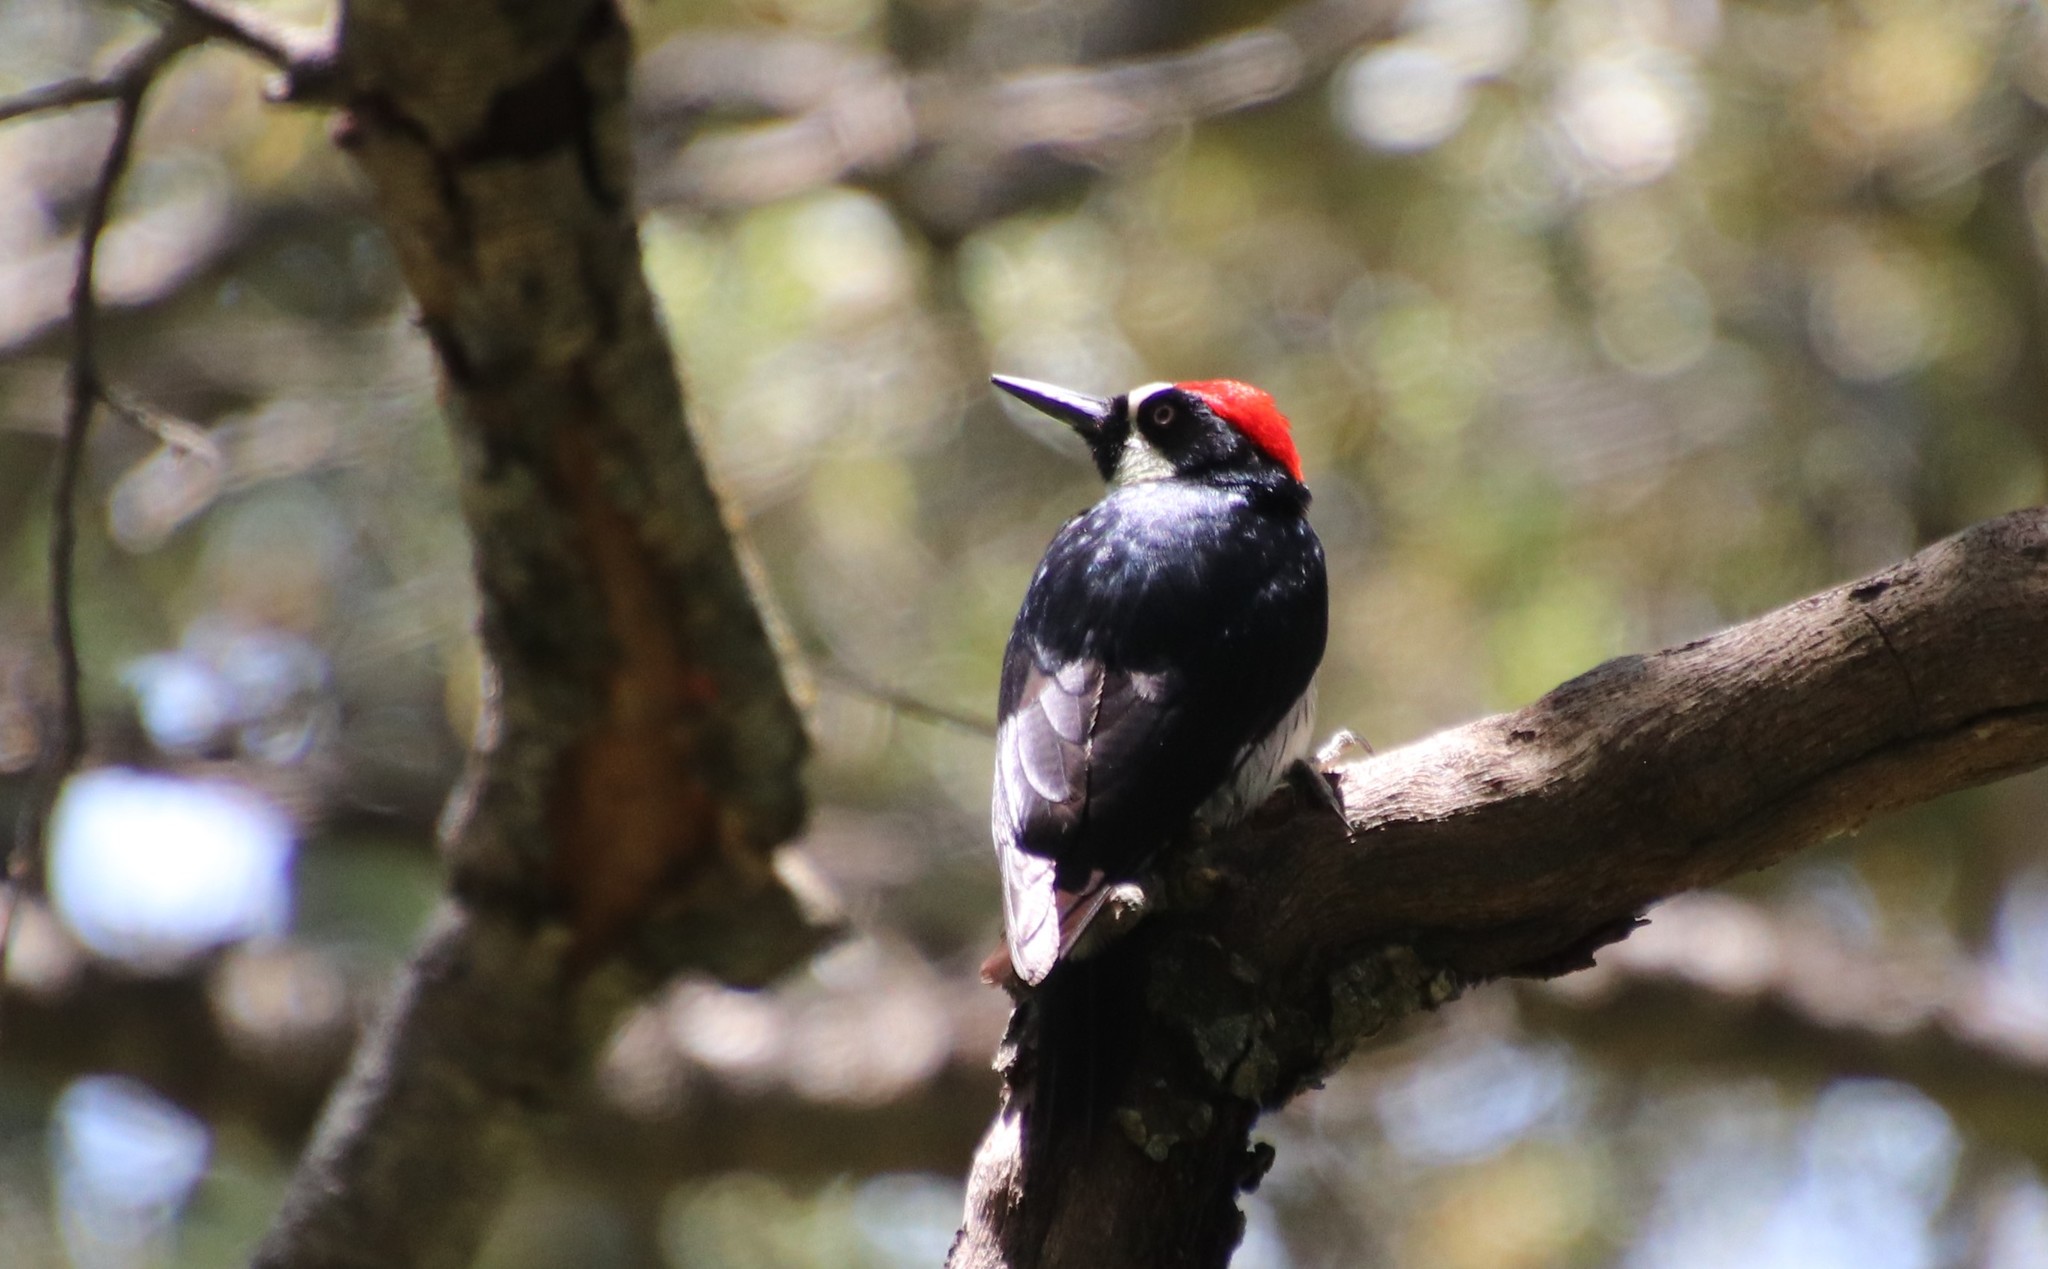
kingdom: Animalia
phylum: Chordata
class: Aves
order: Piciformes
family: Picidae
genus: Melanerpes
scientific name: Melanerpes formicivorus
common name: Acorn woodpecker
